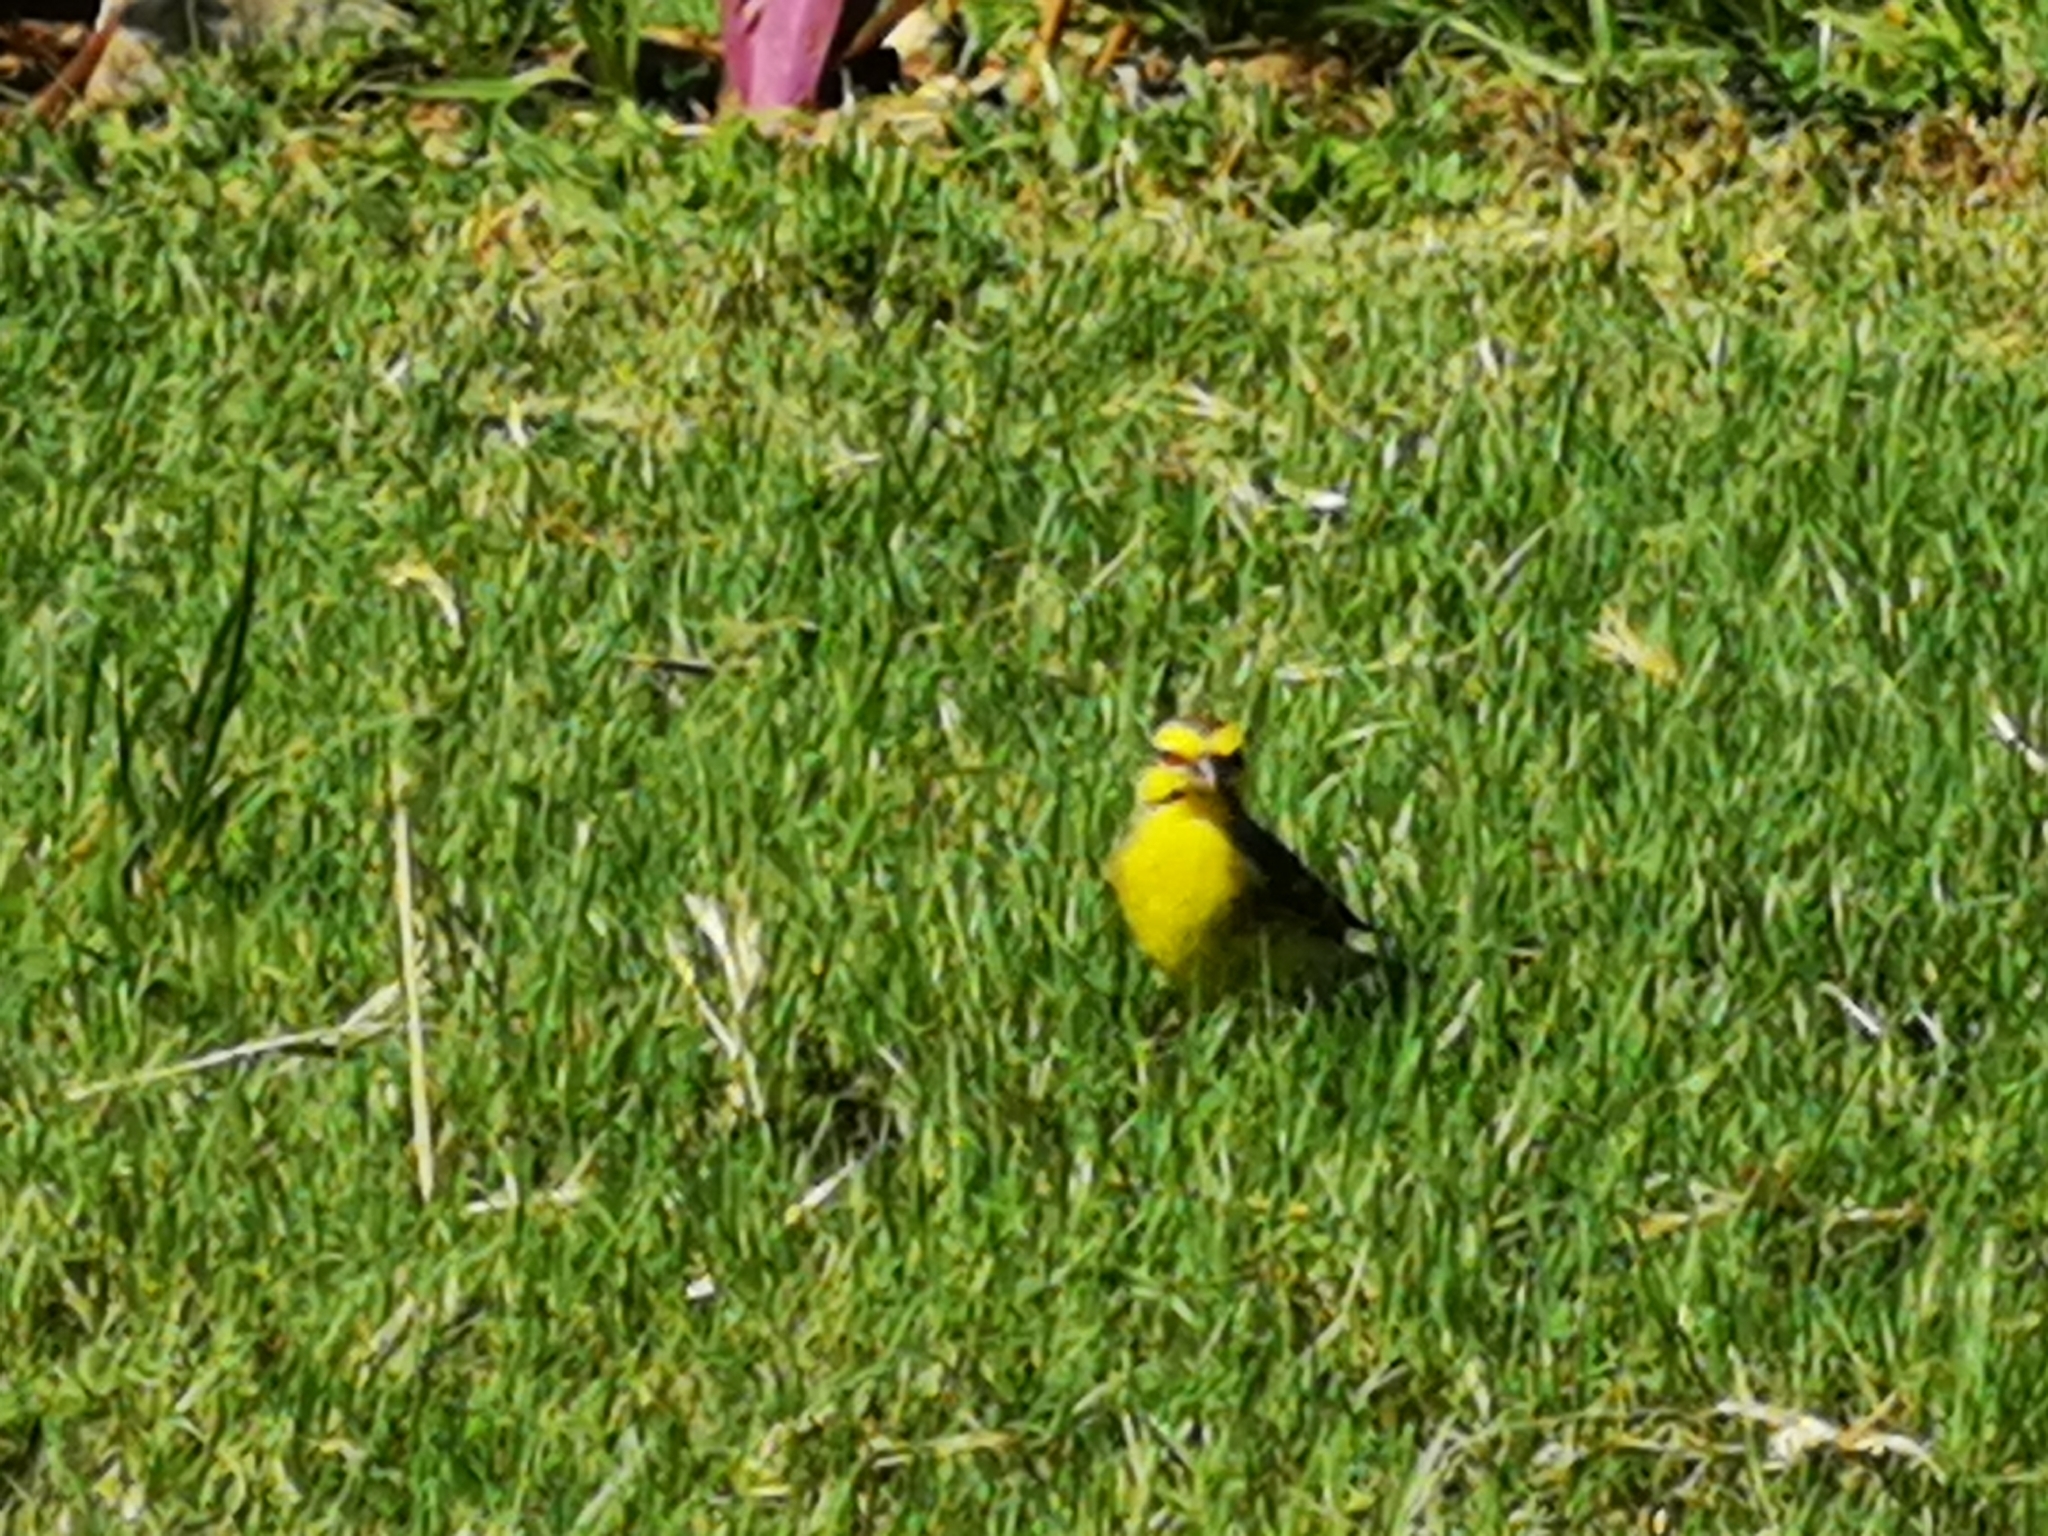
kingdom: Animalia
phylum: Chordata
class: Aves
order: Passeriformes
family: Fringillidae
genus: Crithagra
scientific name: Crithagra mozambica
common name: Yellow-fronted canary
